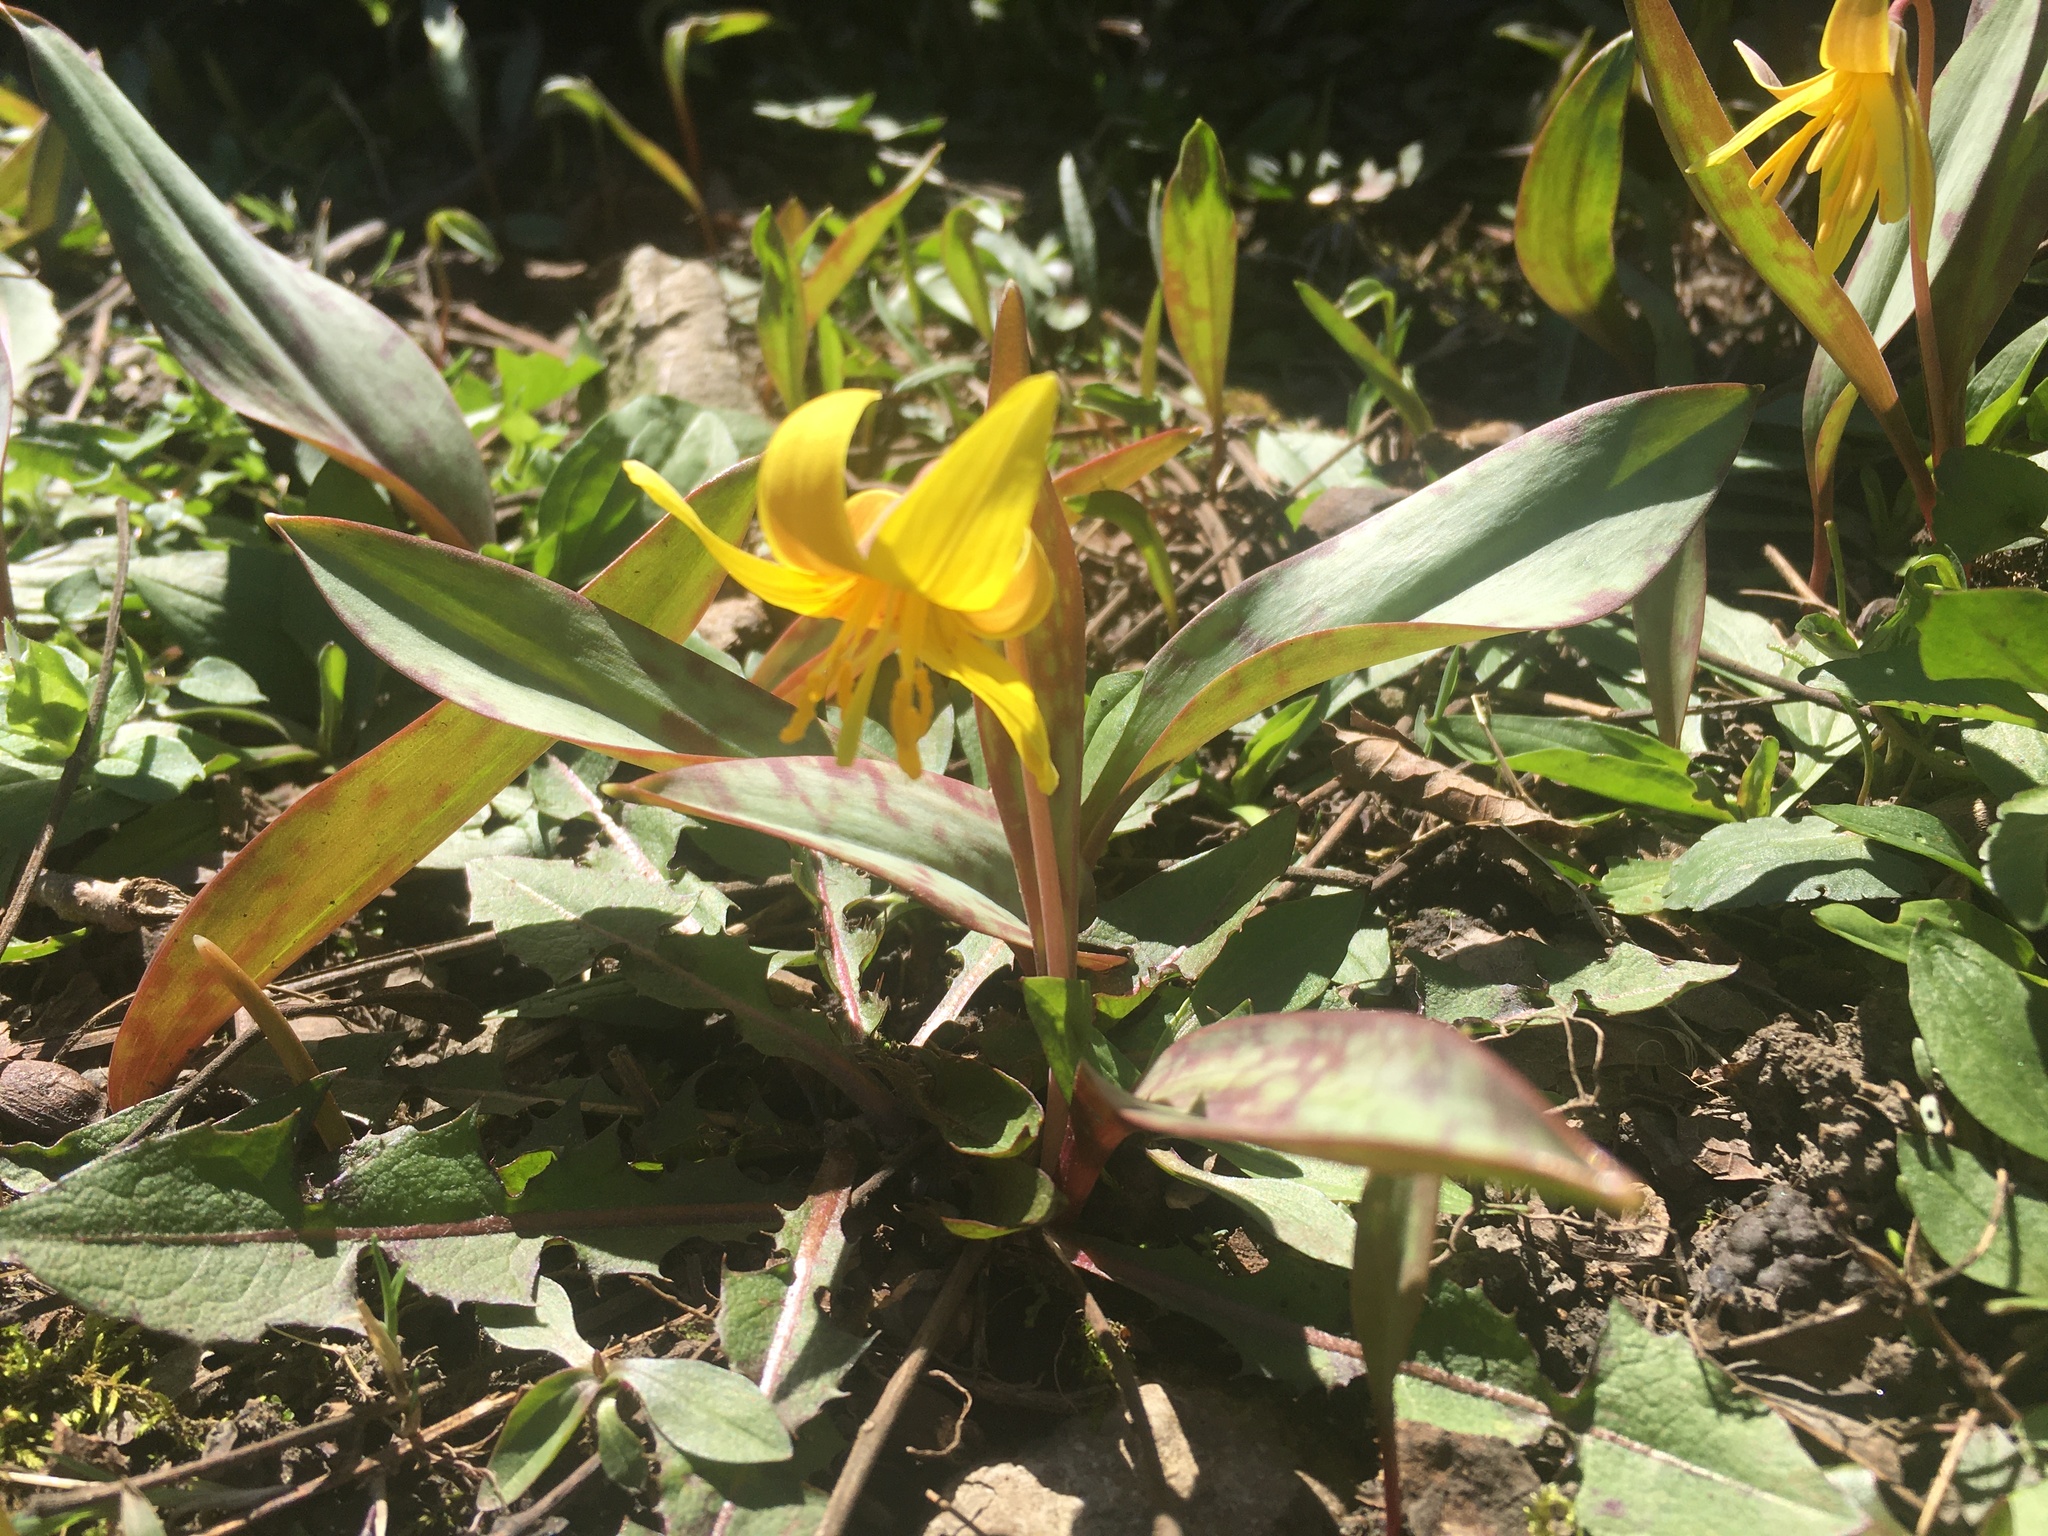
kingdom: Plantae
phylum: Tracheophyta
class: Liliopsida
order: Liliales
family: Liliaceae
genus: Erythronium
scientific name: Erythronium americanum
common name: Yellow adder's-tongue
